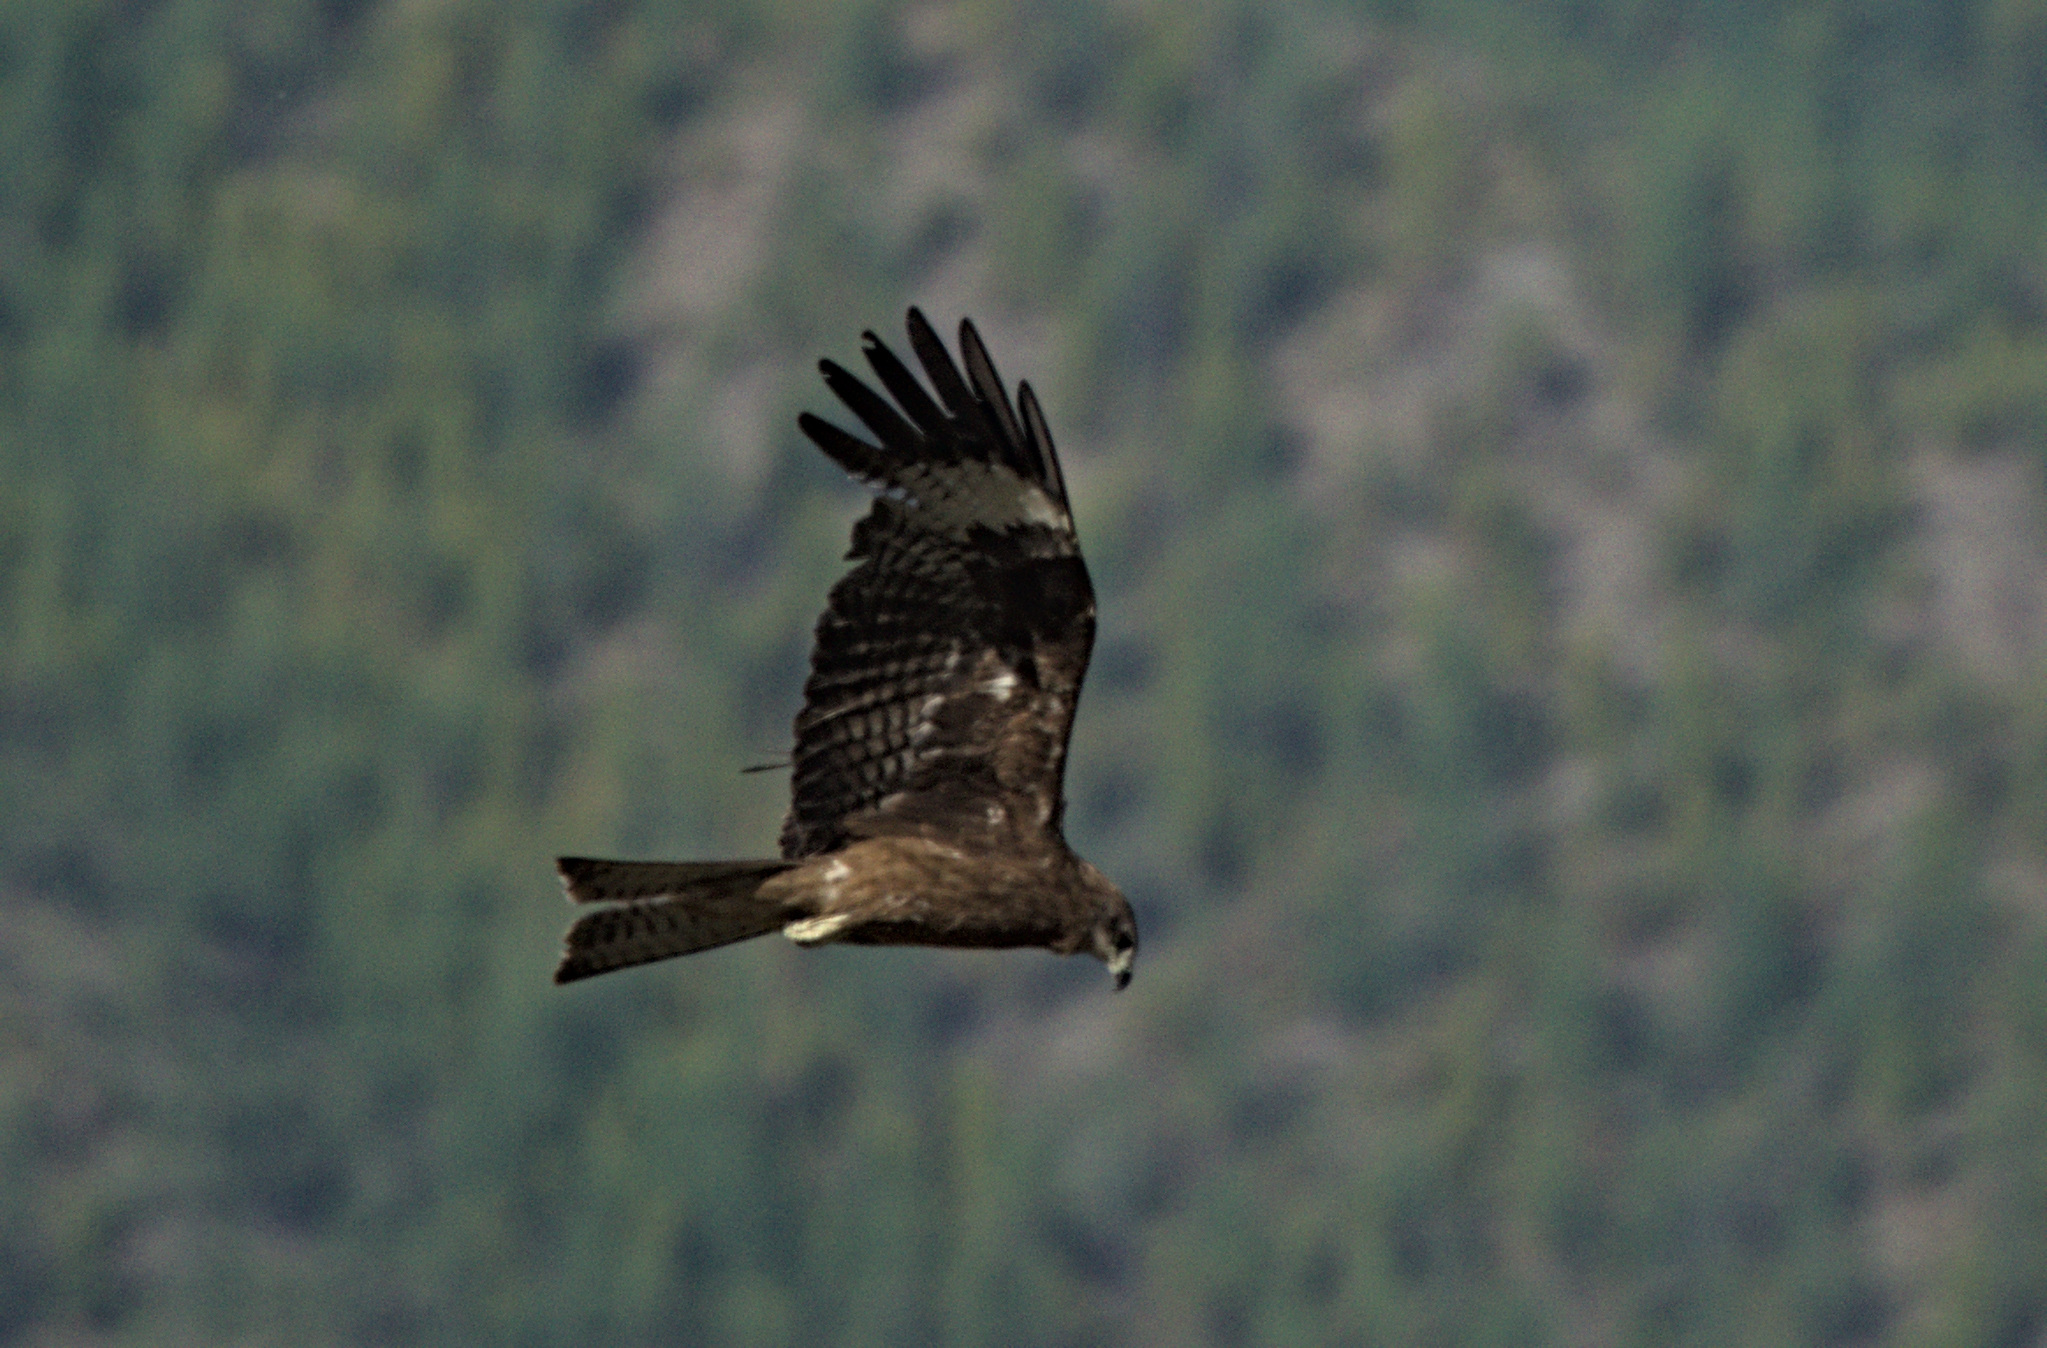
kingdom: Animalia
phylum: Chordata
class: Aves
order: Accipitriformes
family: Accipitridae
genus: Milvus
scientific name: Milvus migrans
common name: Black kite
